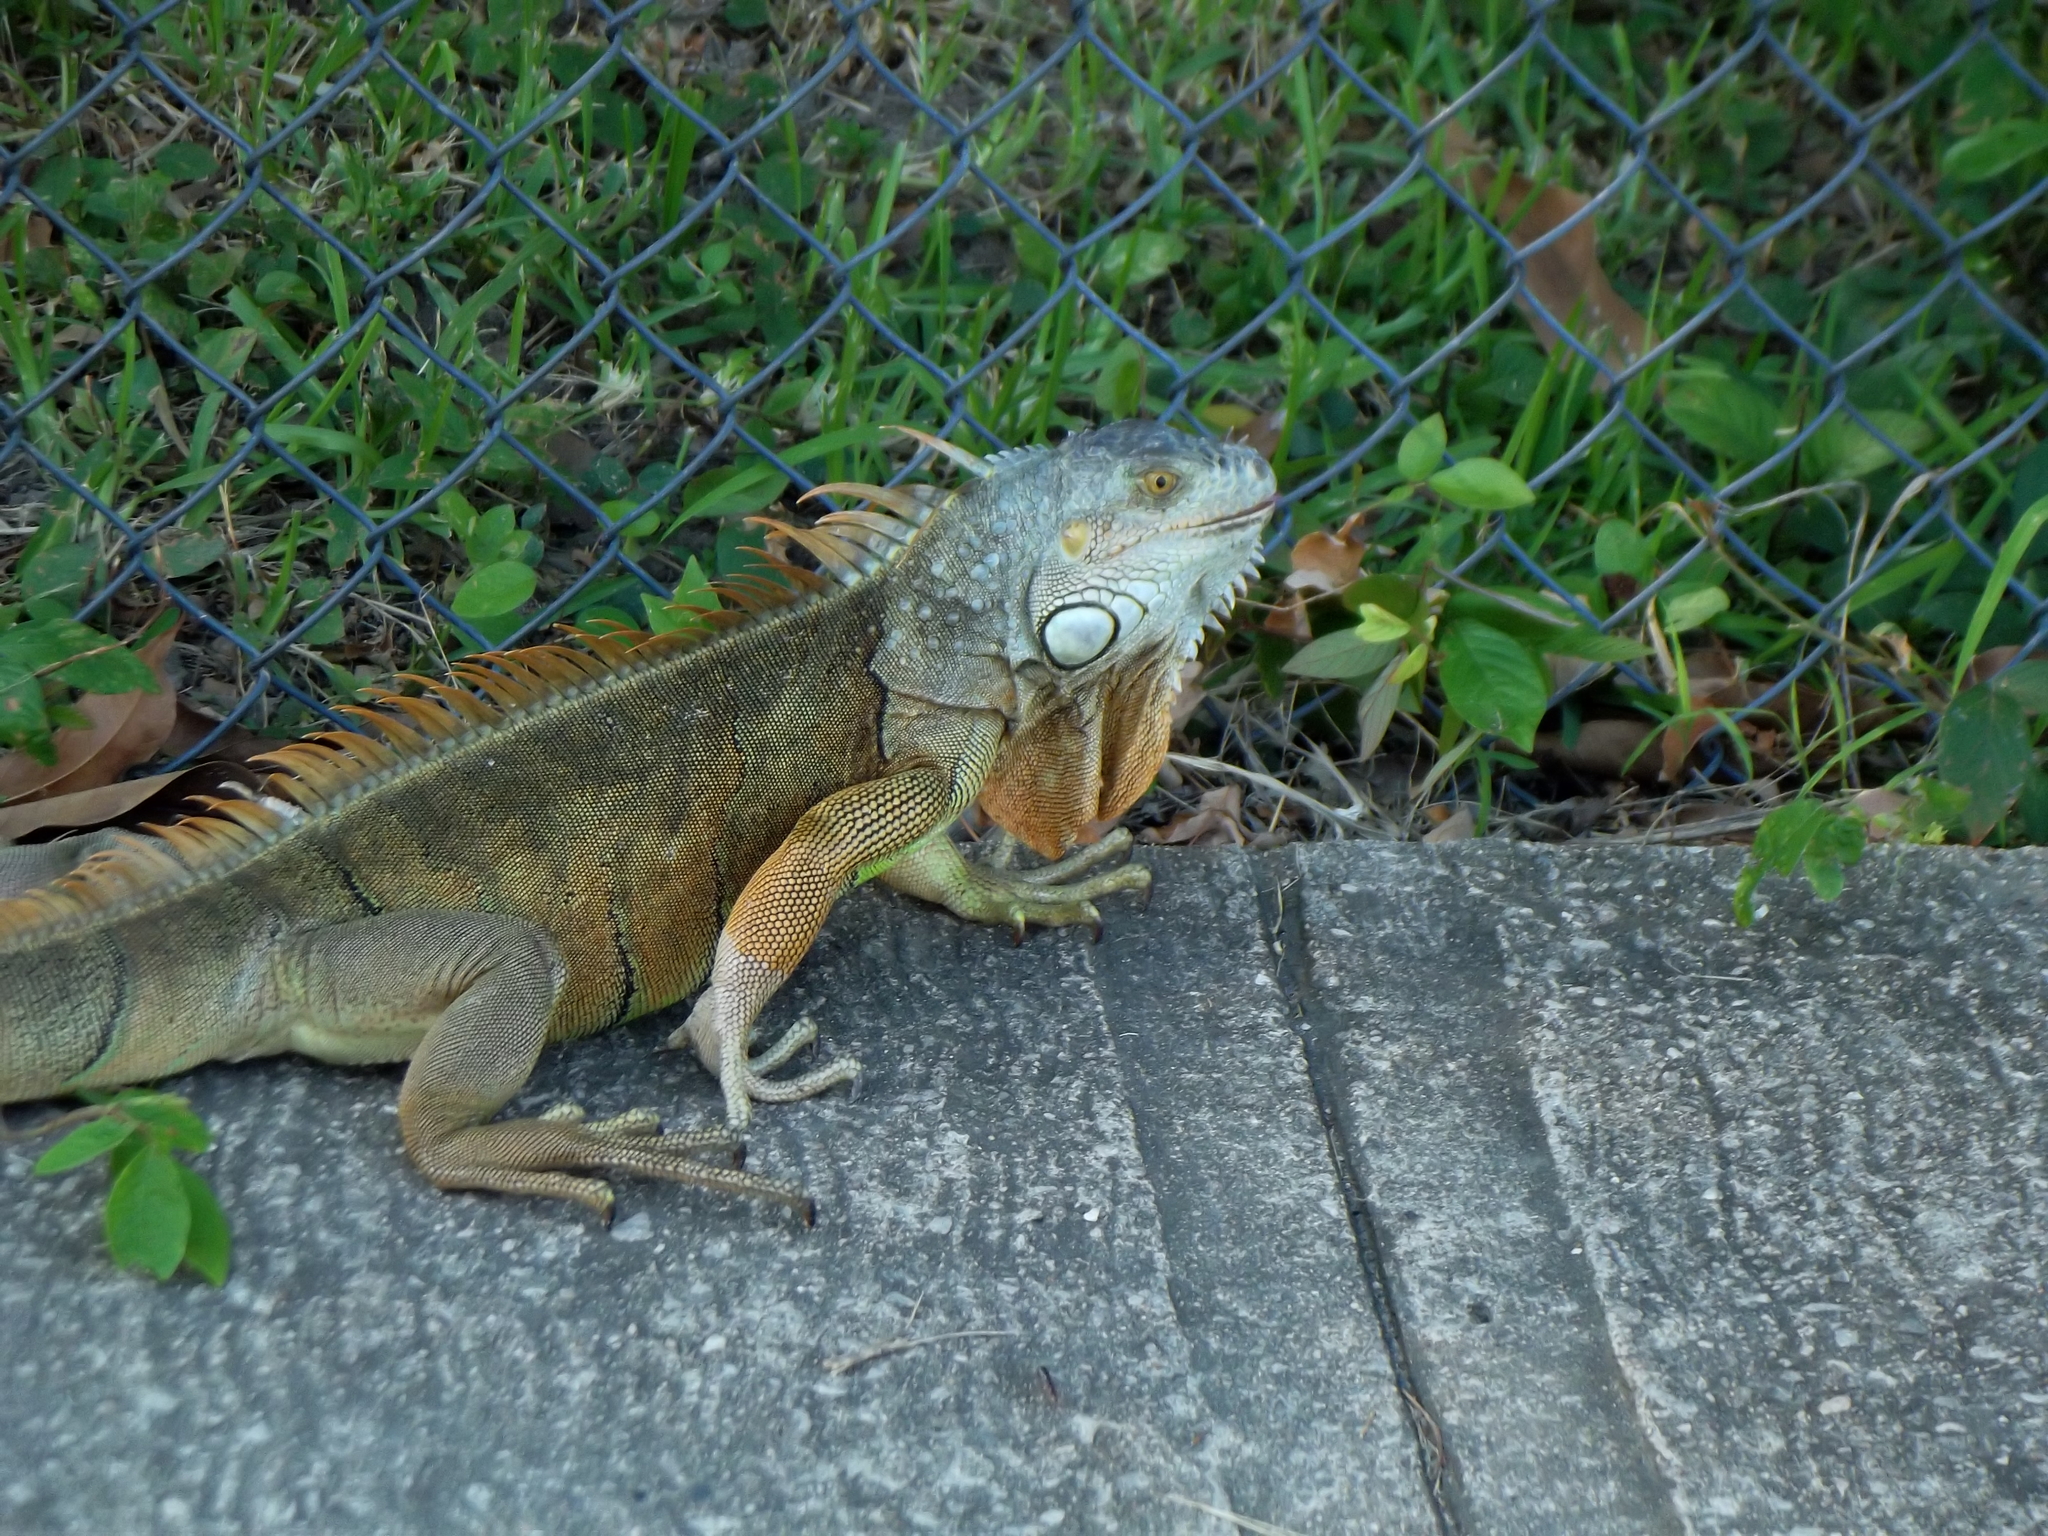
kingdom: Animalia
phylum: Chordata
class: Squamata
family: Iguanidae
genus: Iguana
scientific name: Iguana iguana
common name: Green iguana
